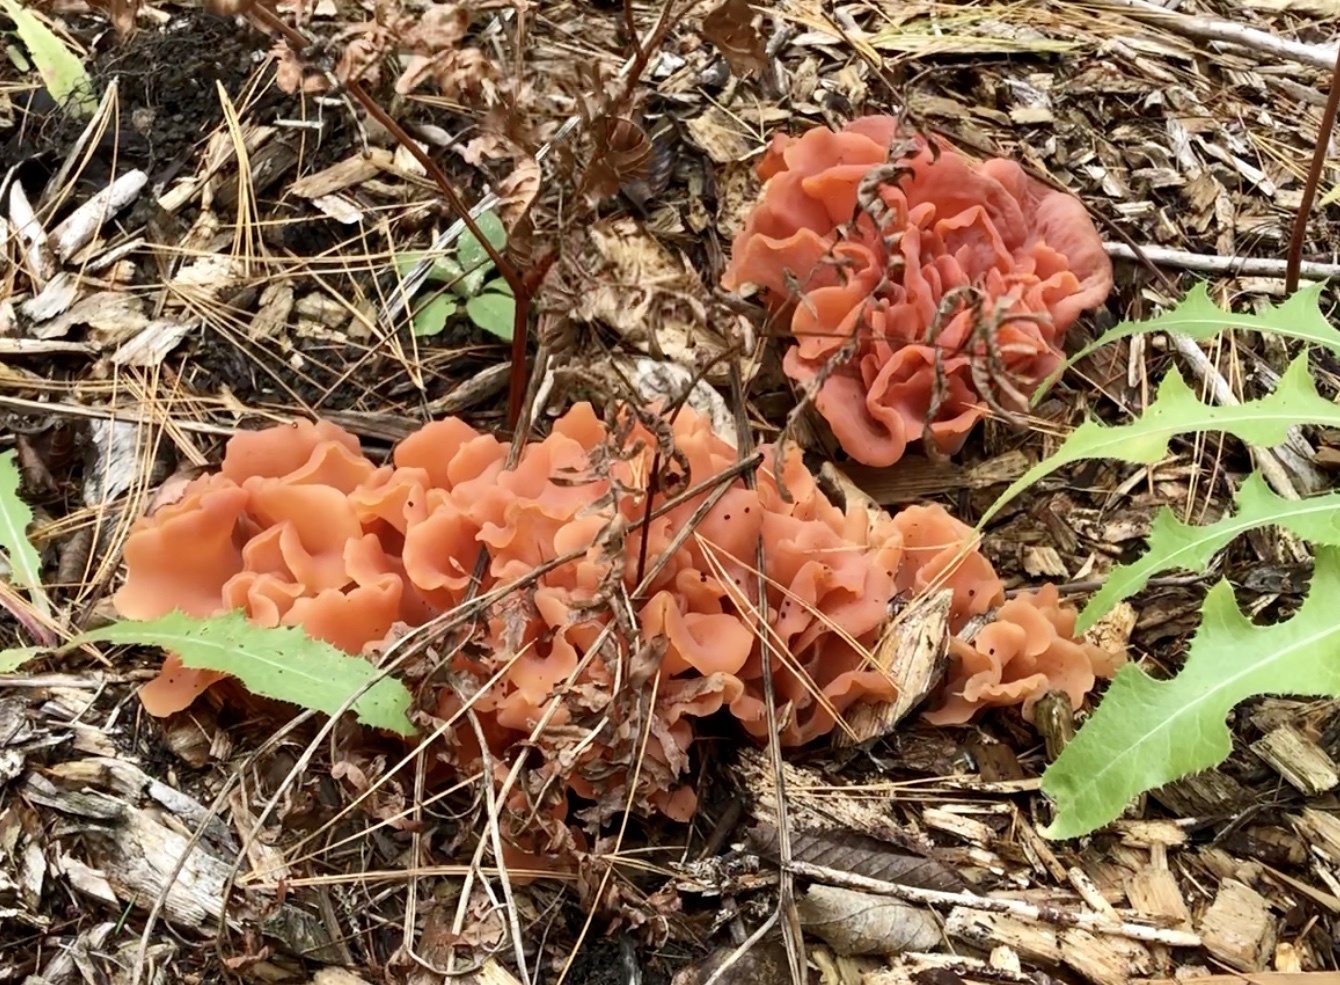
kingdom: Fungi
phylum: Basidiomycota
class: Agaricomycetes
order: Auriculariales
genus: Guepinia
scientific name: Guepinia helvelloides
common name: Salmon salad
